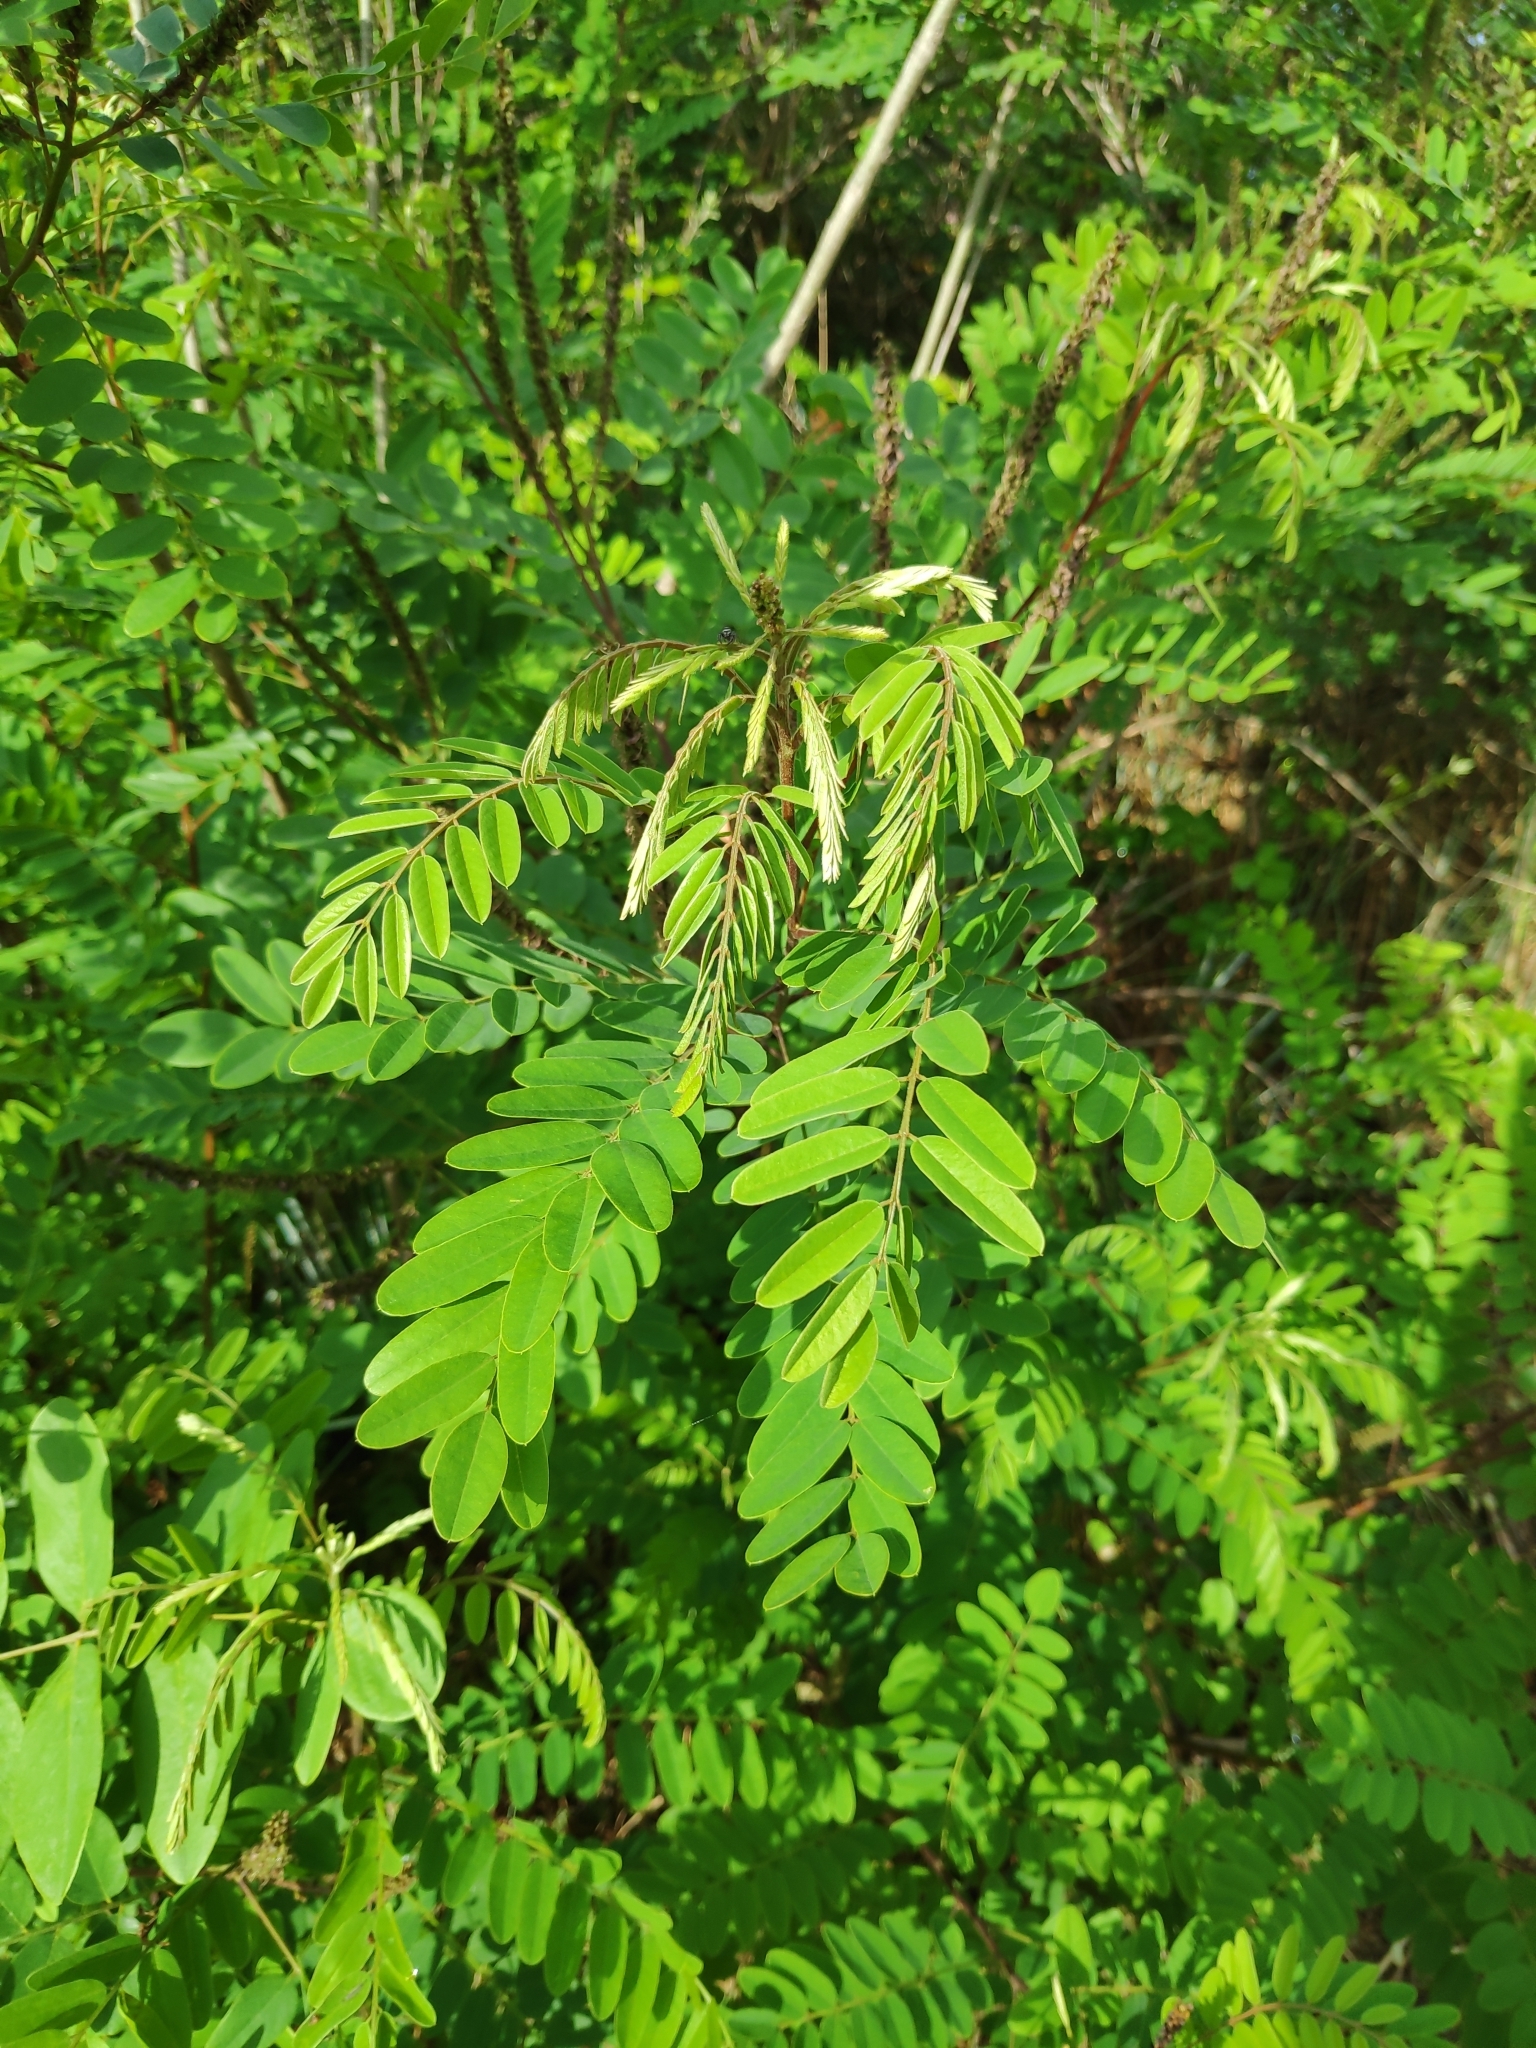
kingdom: Plantae
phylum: Tracheophyta
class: Magnoliopsida
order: Fabales
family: Fabaceae
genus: Amorpha
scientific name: Amorpha fruticosa
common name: False indigo
